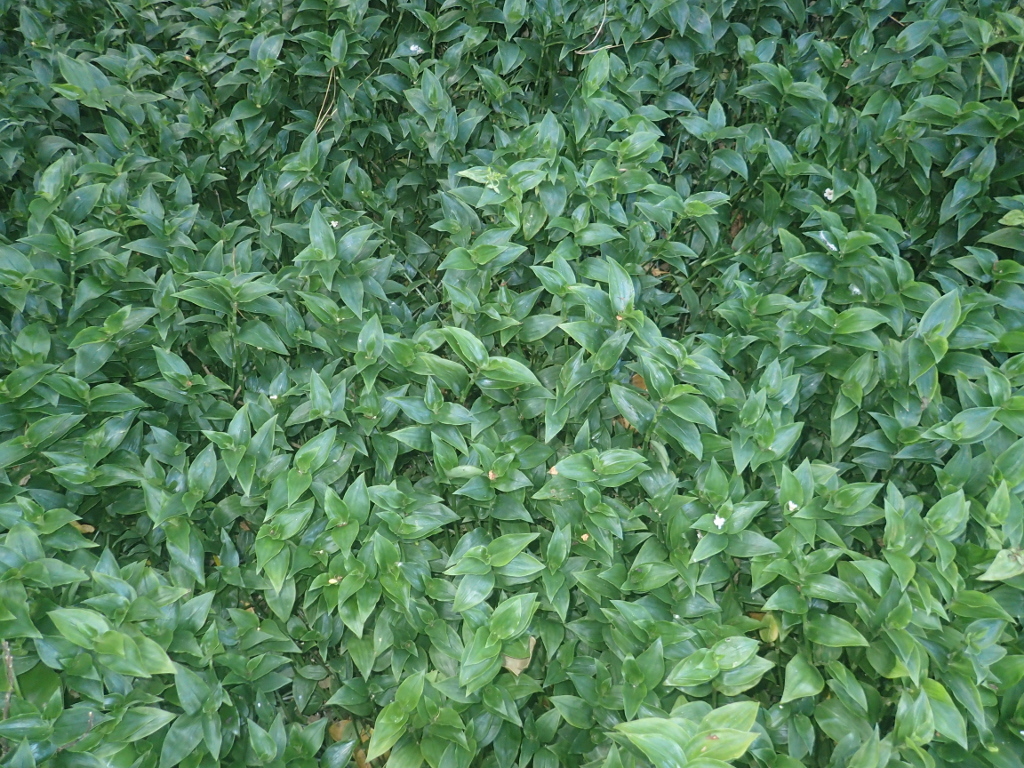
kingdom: Plantae
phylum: Tracheophyta
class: Liliopsida
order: Commelinales
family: Commelinaceae
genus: Tradescantia
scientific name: Tradescantia fluminensis
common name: Wandering-jew
